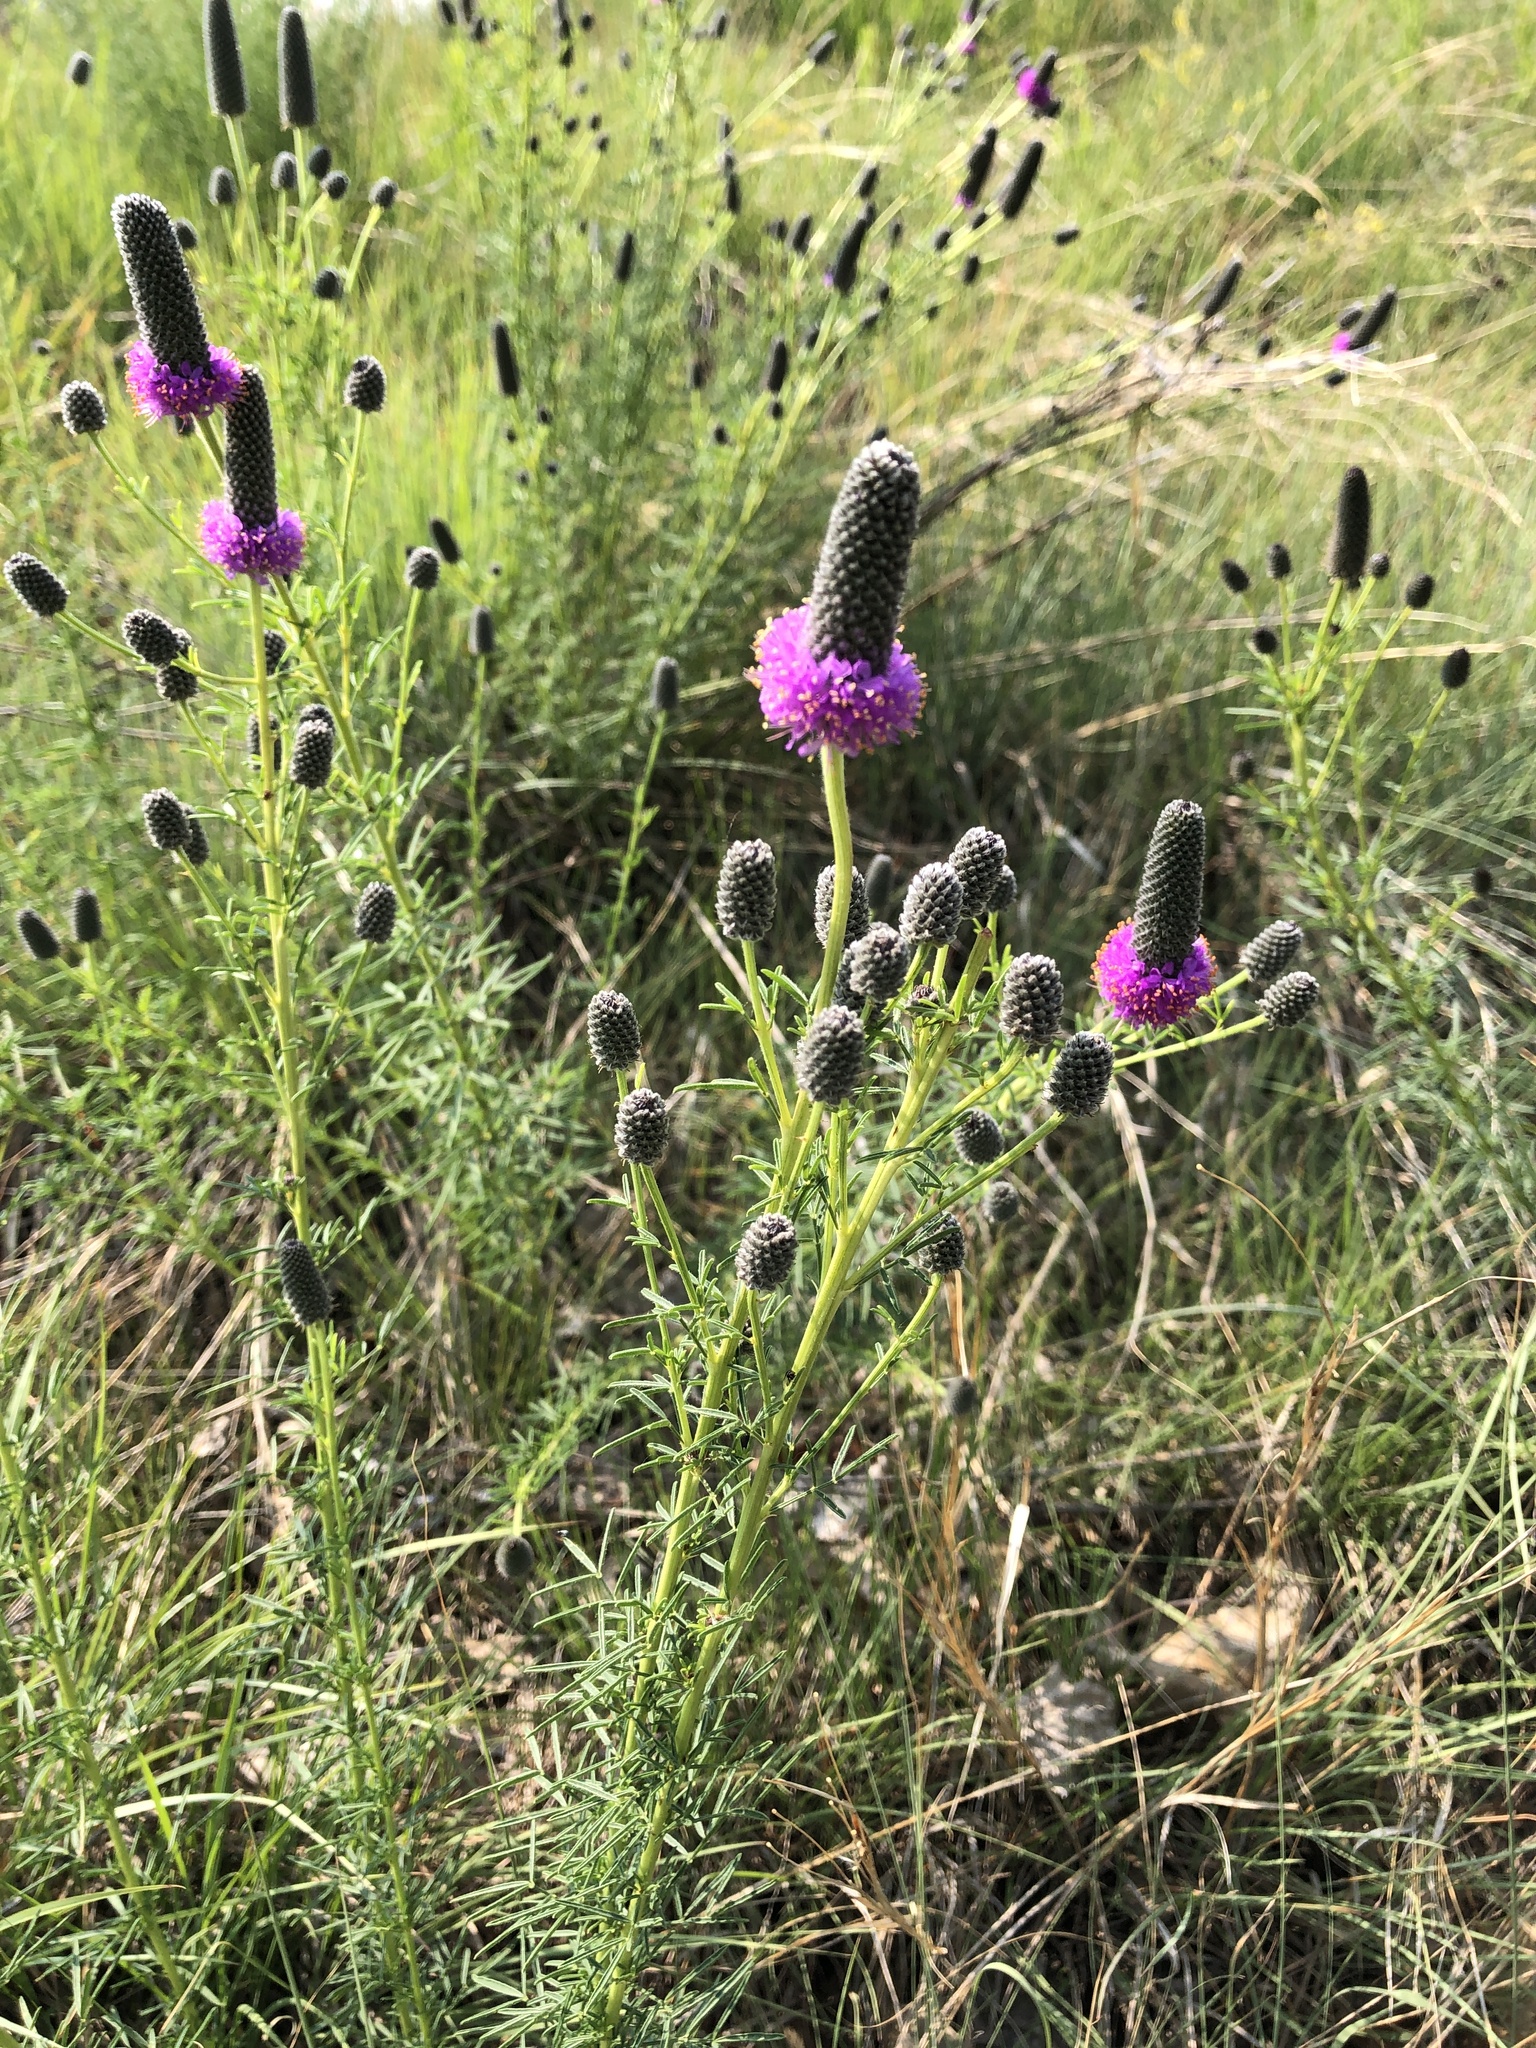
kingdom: Plantae
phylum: Tracheophyta
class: Magnoliopsida
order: Fabales
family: Fabaceae
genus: Dalea
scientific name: Dalea purpurea
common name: Purple prairie-clover
